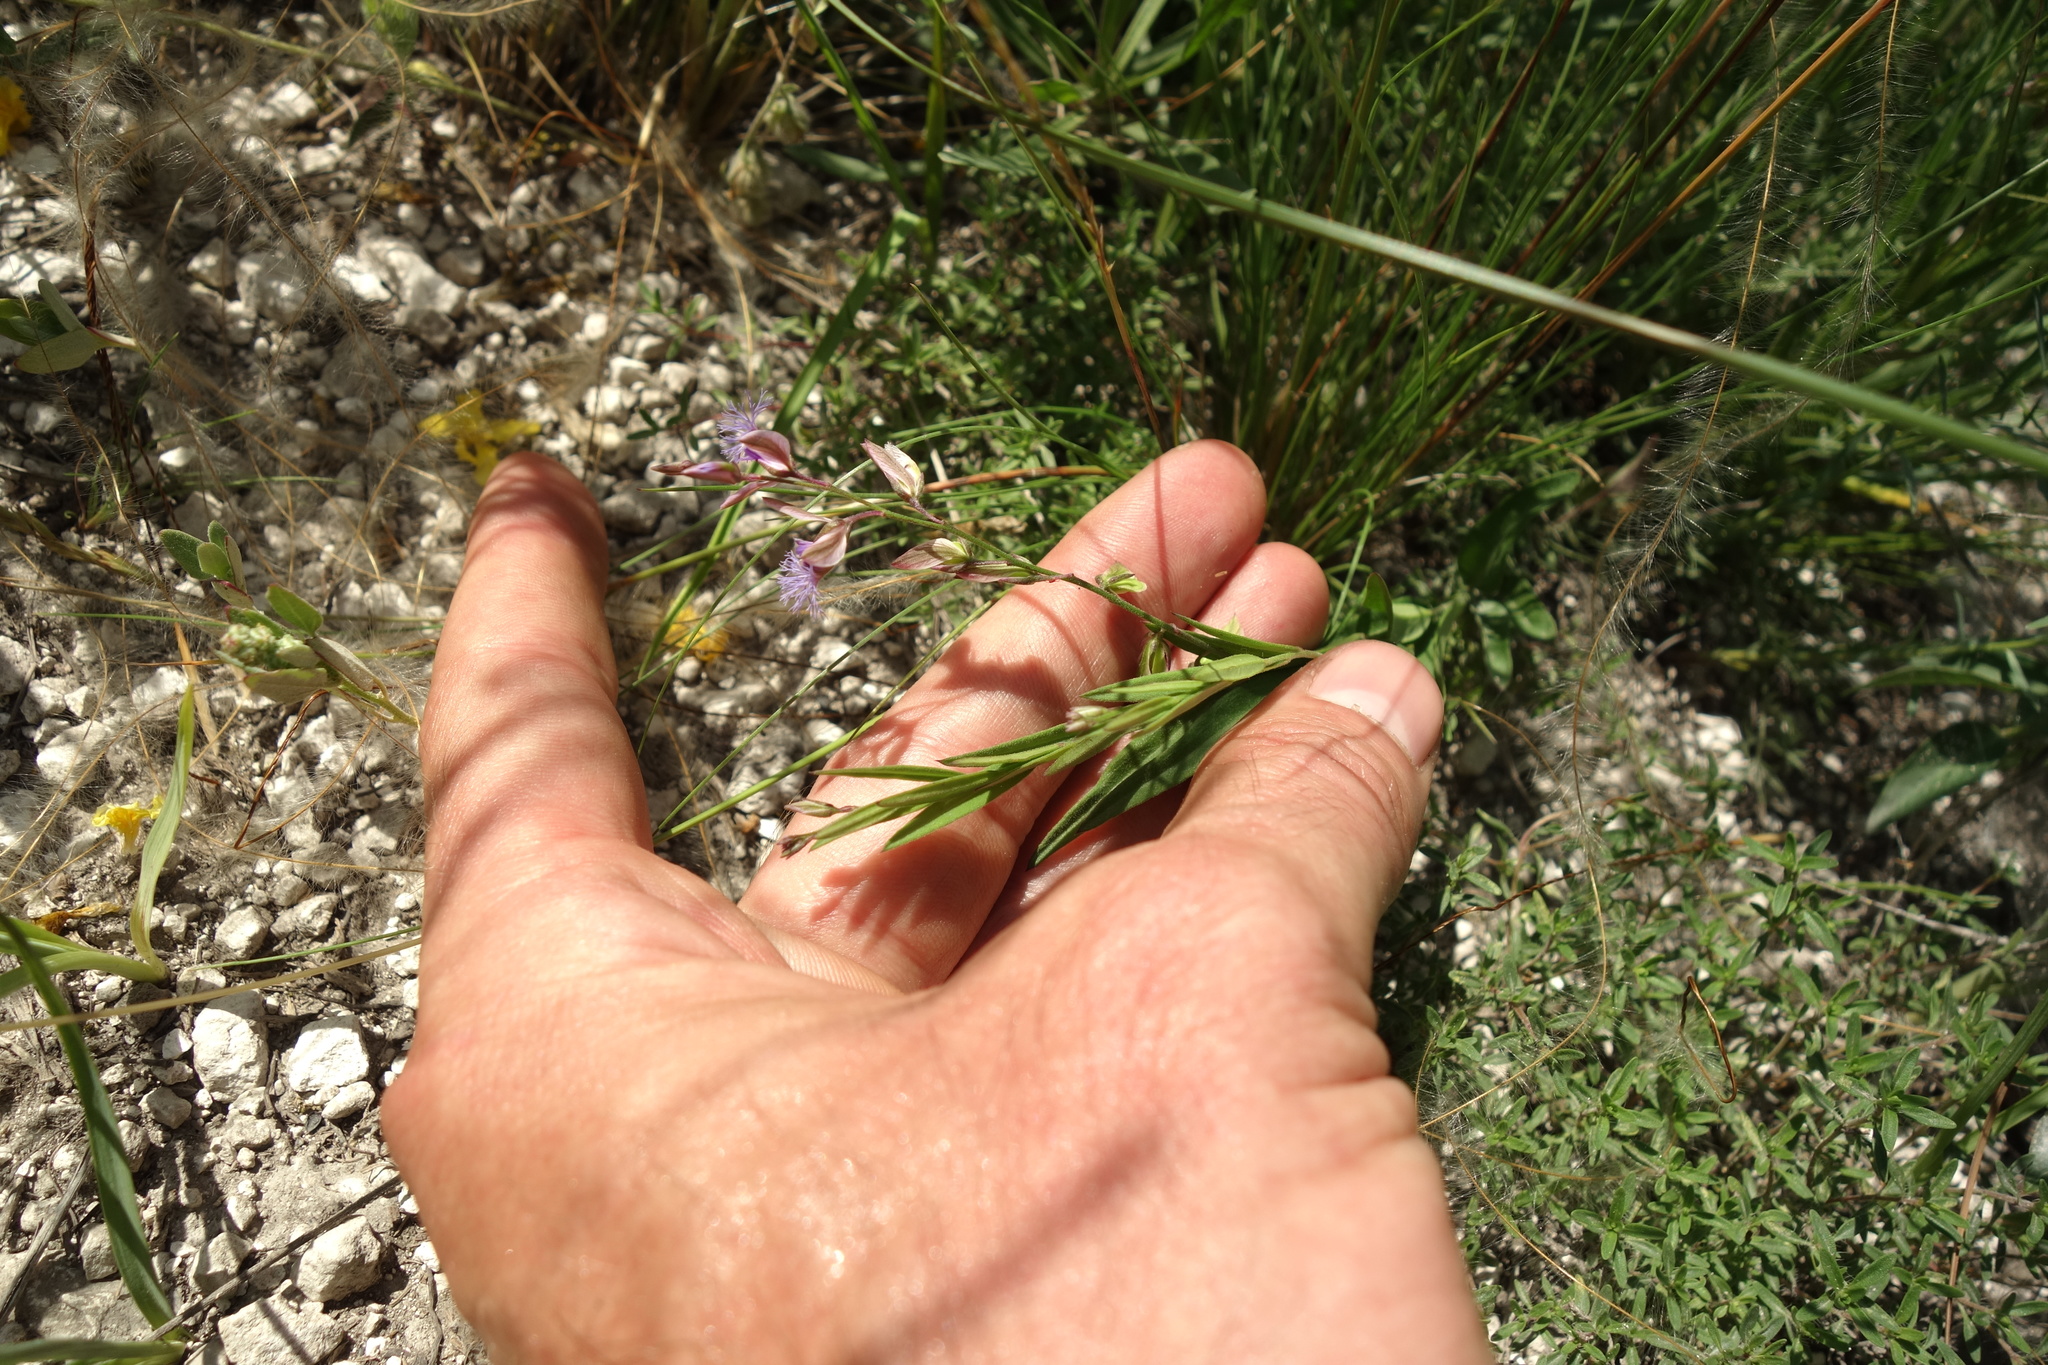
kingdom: Plantae
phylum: Tracheophyta
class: Magnoliopsida
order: Fabales
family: Polygalaceae
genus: Polygala
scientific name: Polygala sibirica
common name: Siberian polygala
